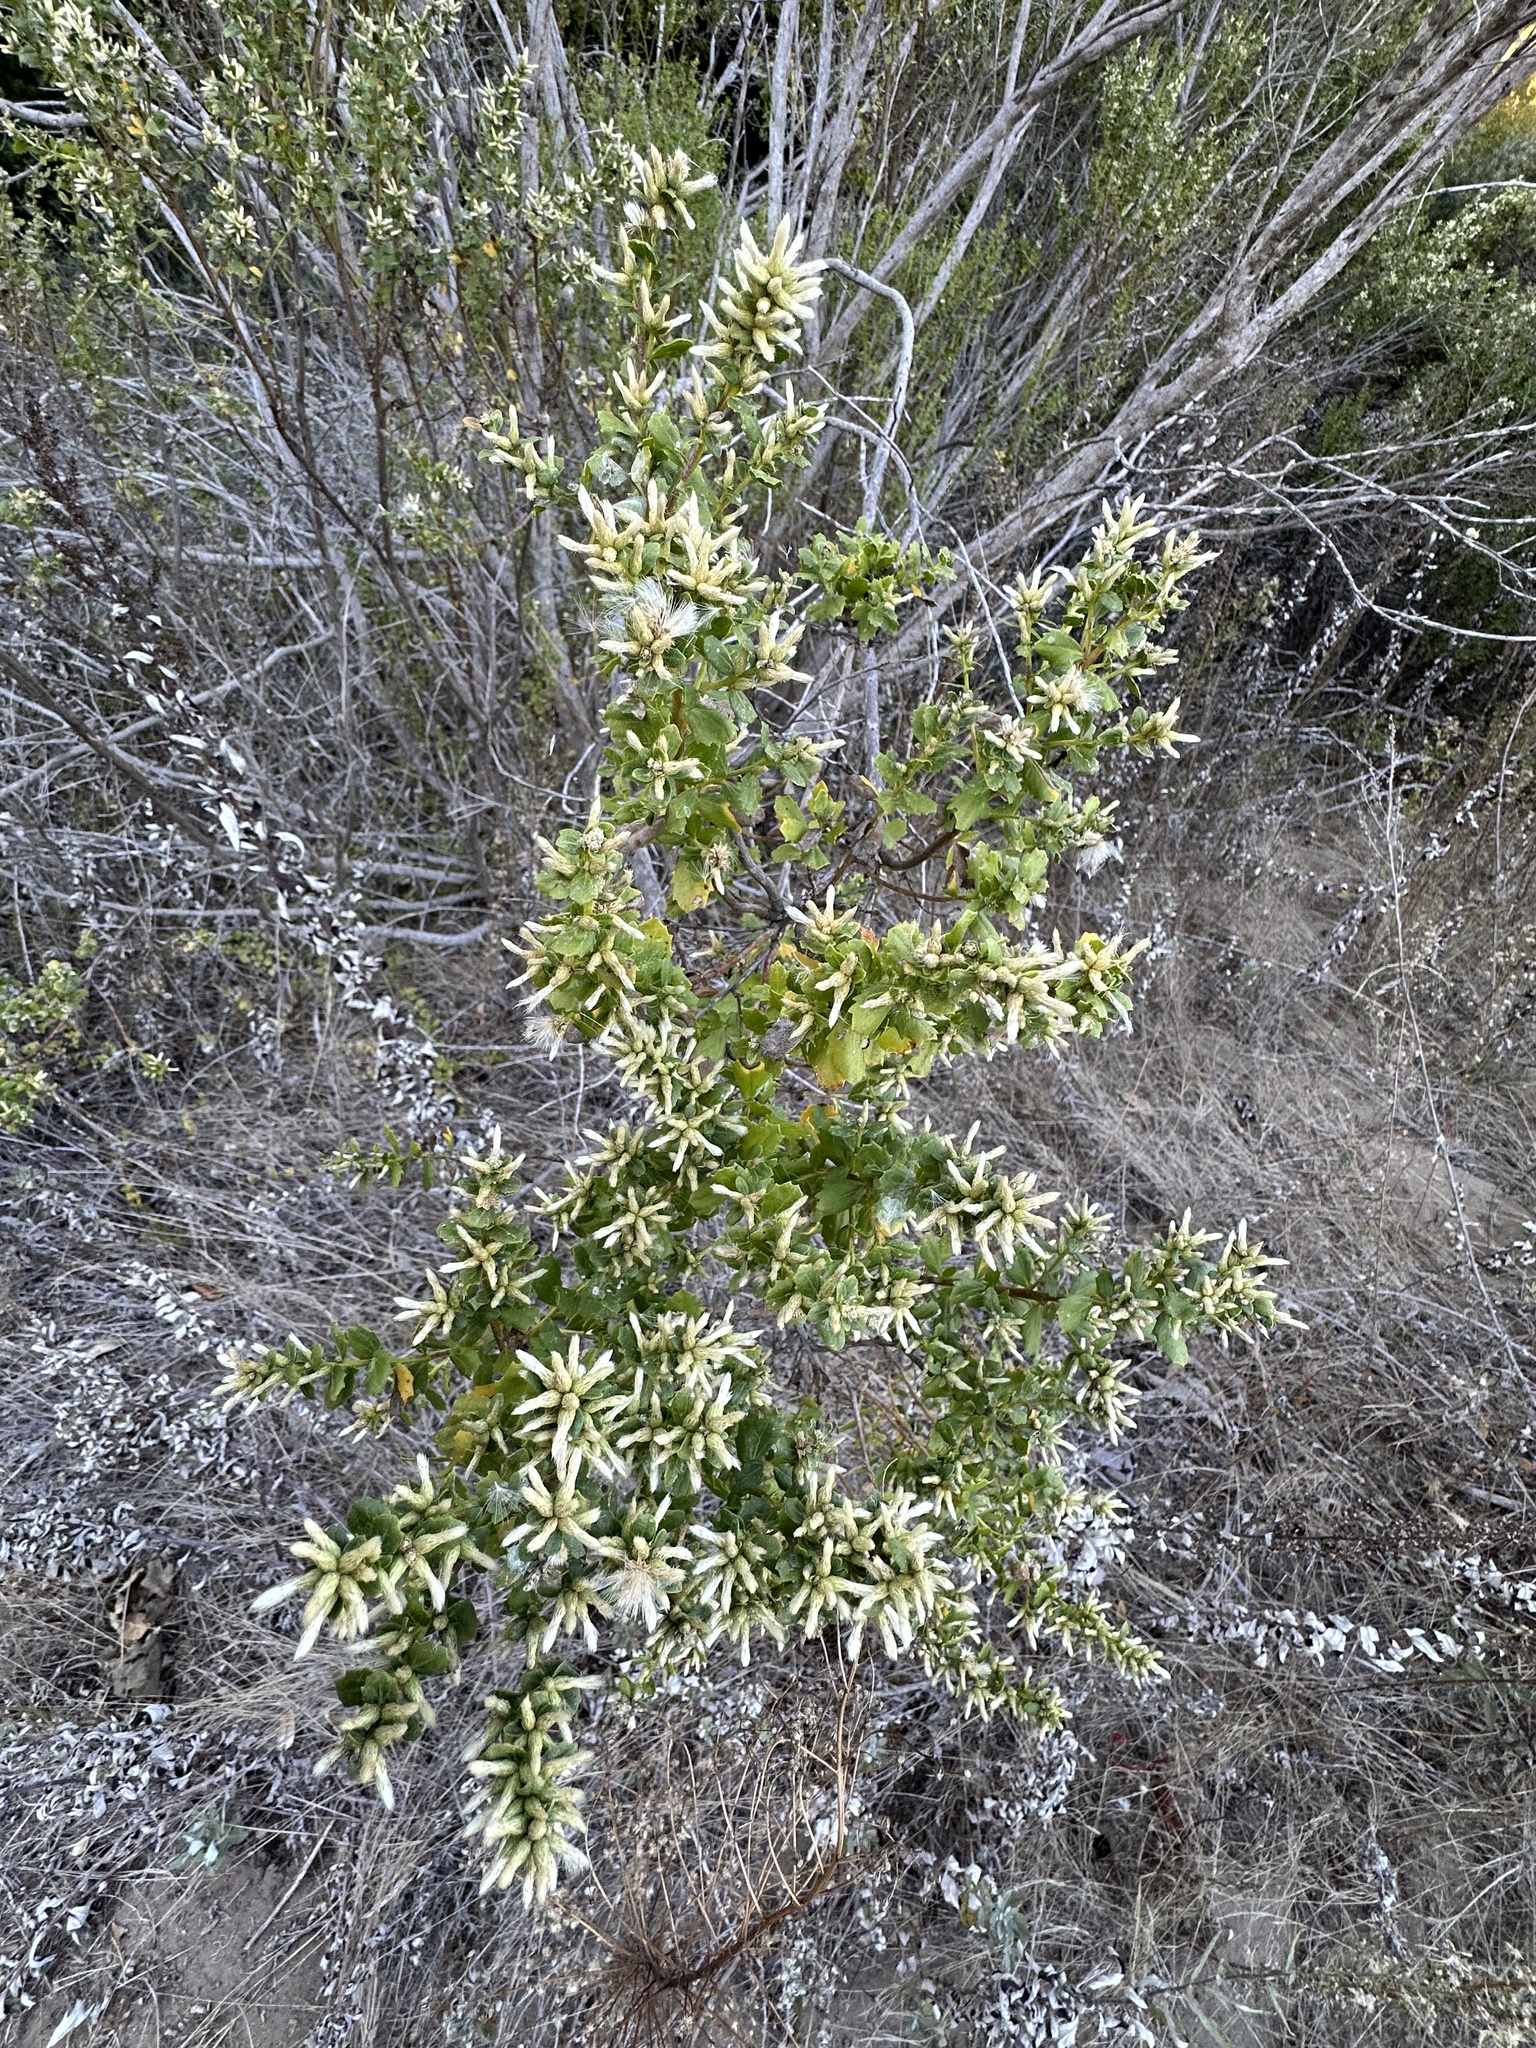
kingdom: Plantae
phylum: Tracheophyta
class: Magnoliopsida
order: Asterales
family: Asteraceae
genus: Baccharis
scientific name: Baccharis pilularis
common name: Coyotebrush
